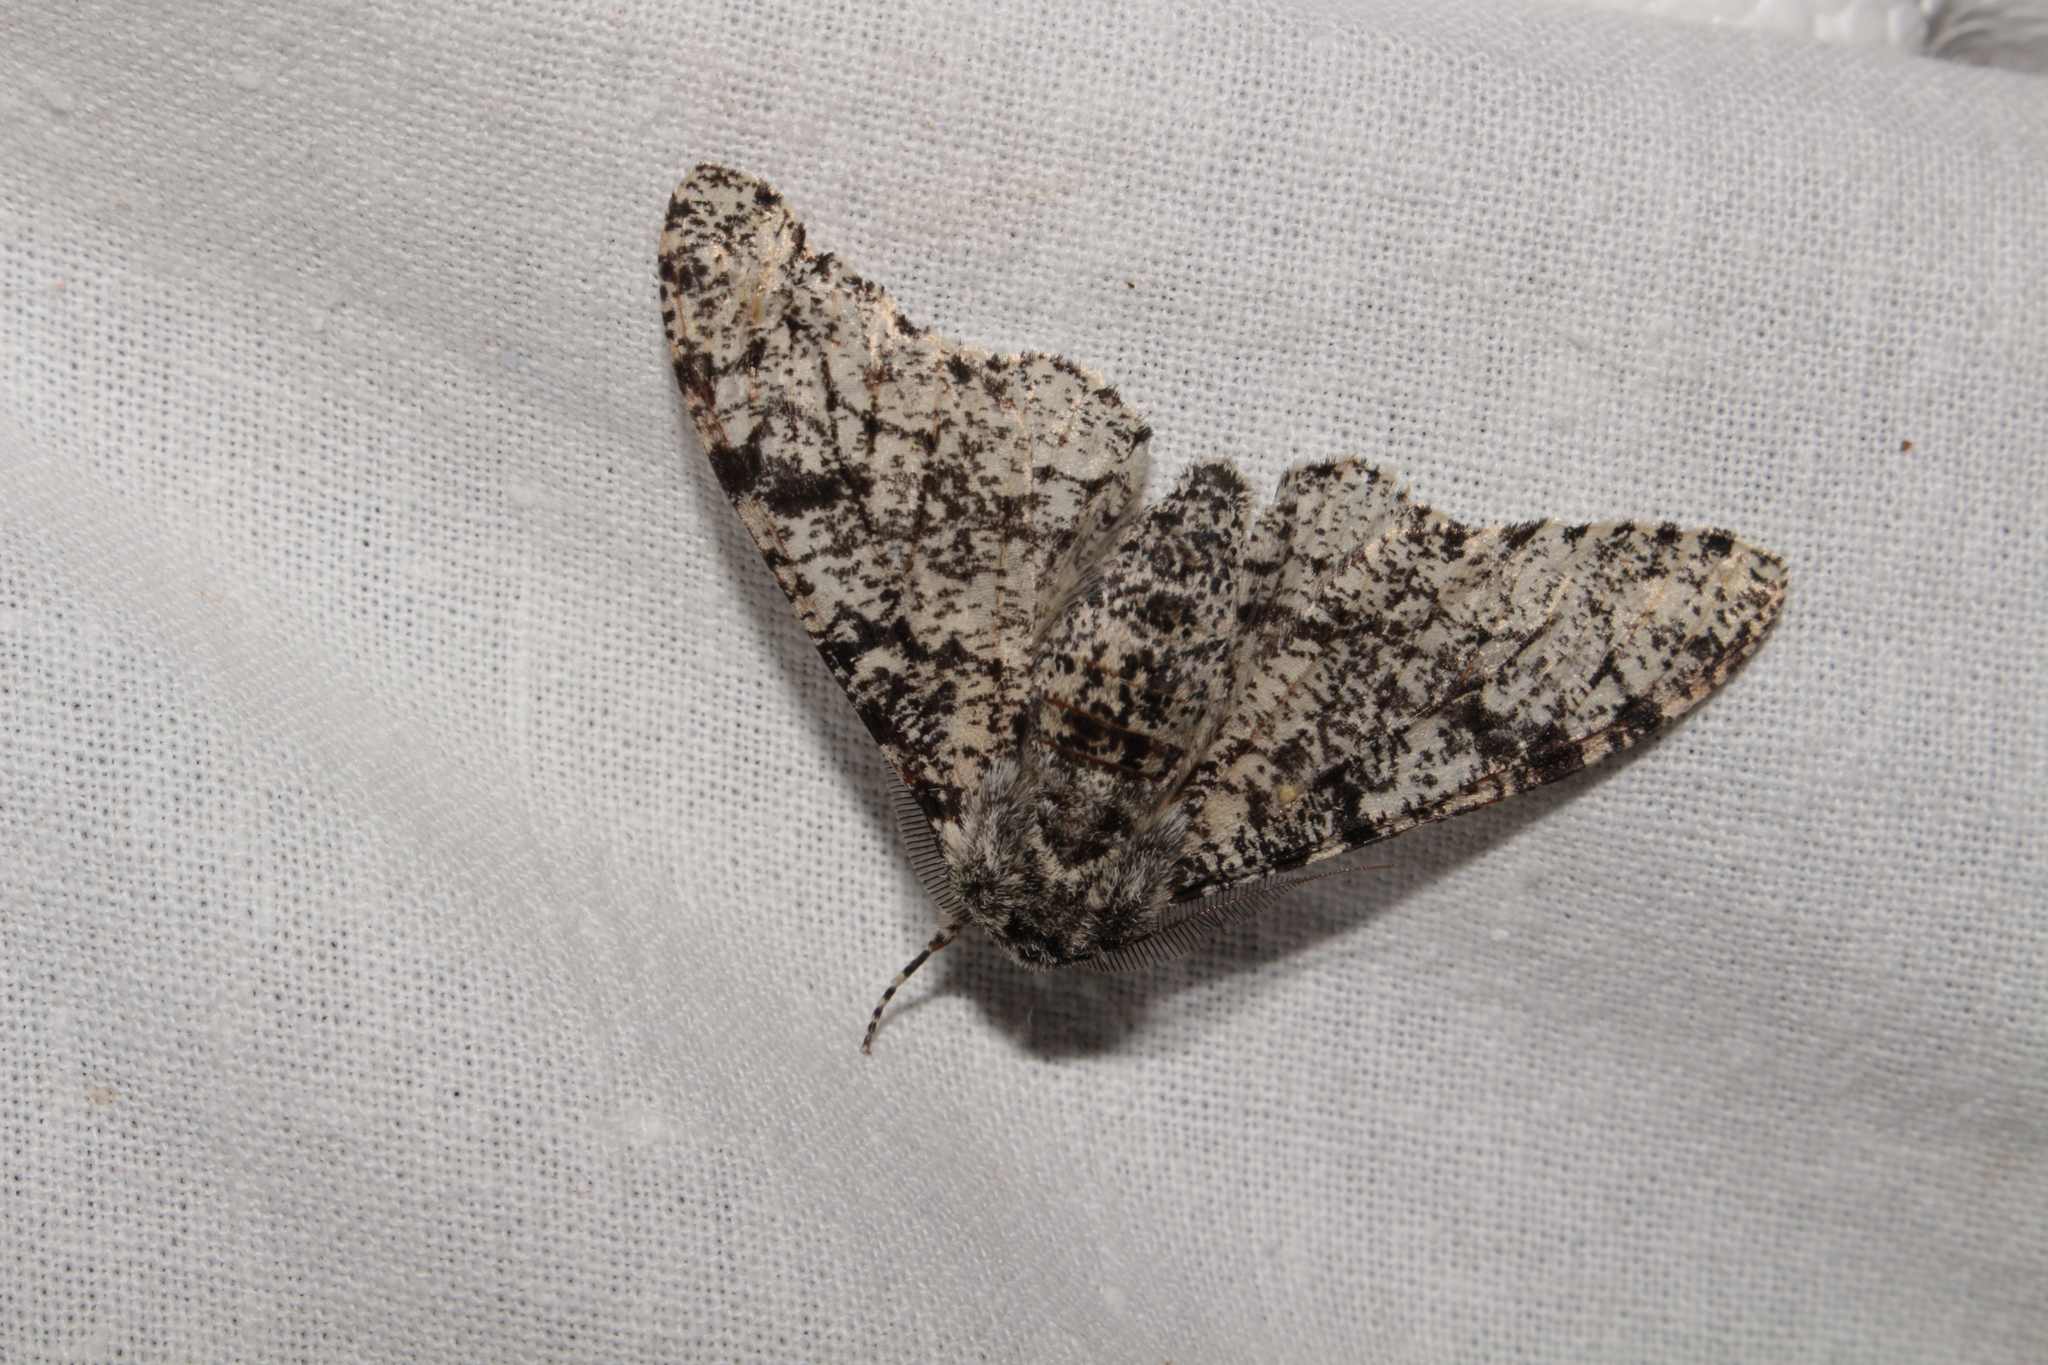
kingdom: Animalia
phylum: Arthropoda
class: Insecta
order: Lepidoptera
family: Geometridae
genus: Biston
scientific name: Biston betularia
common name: Peppered moth
